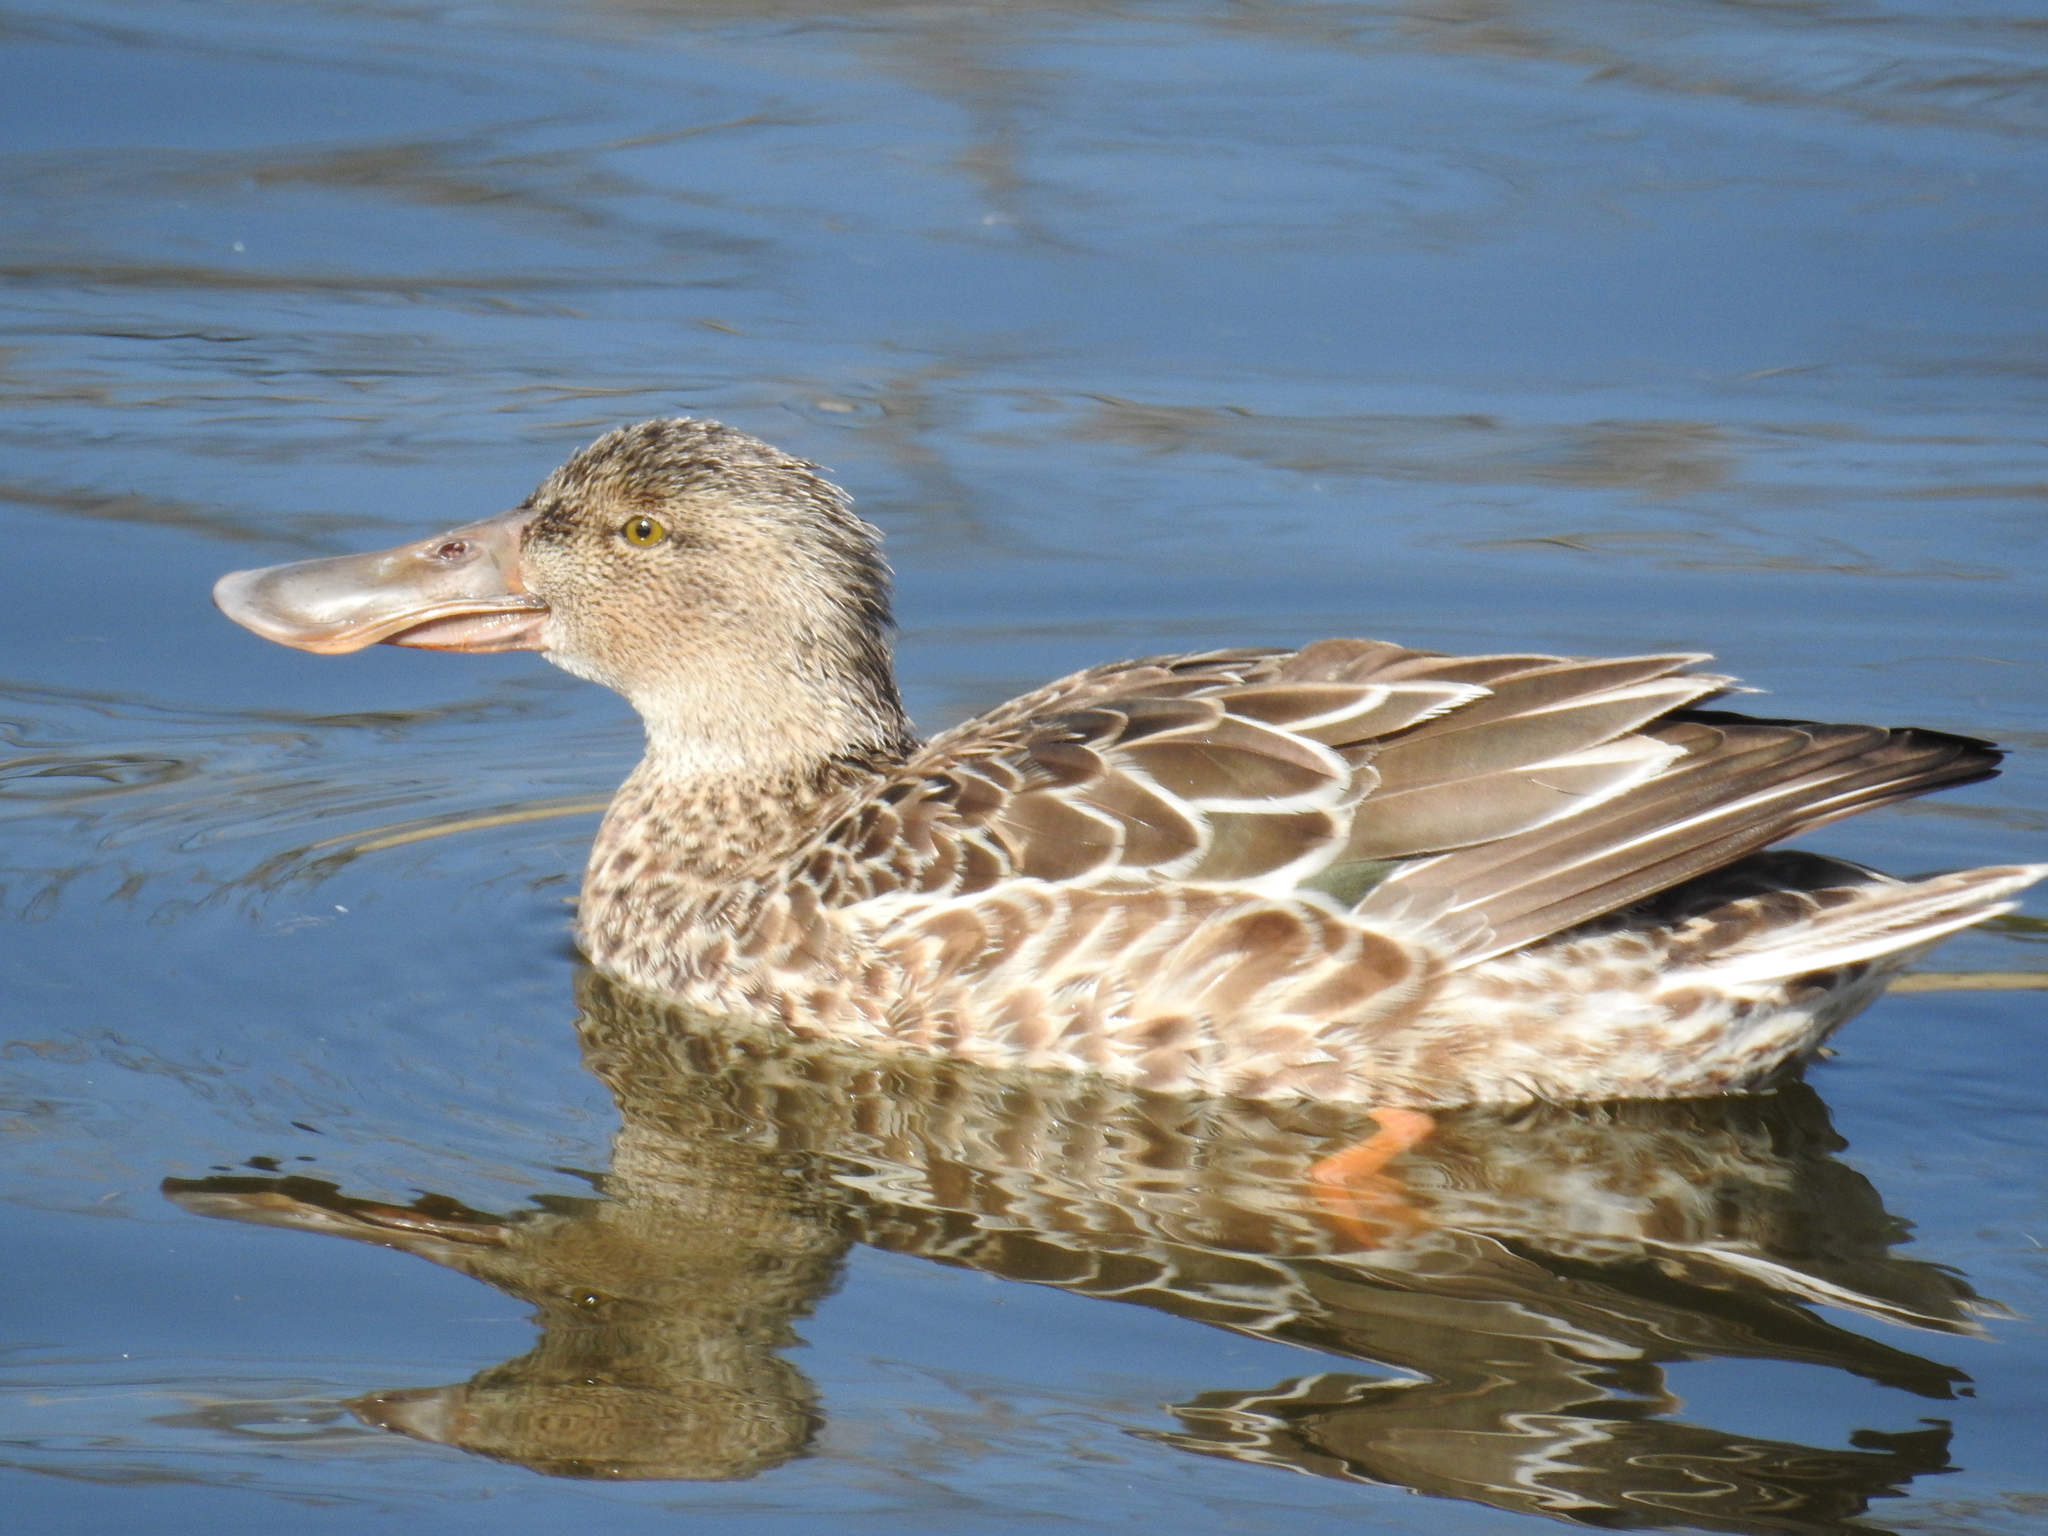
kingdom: Animalia
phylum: Chordata
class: Aves
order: Anseriformes
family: Anatidae
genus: Spatula
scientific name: Spatula clypeata
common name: Northern shoveler
